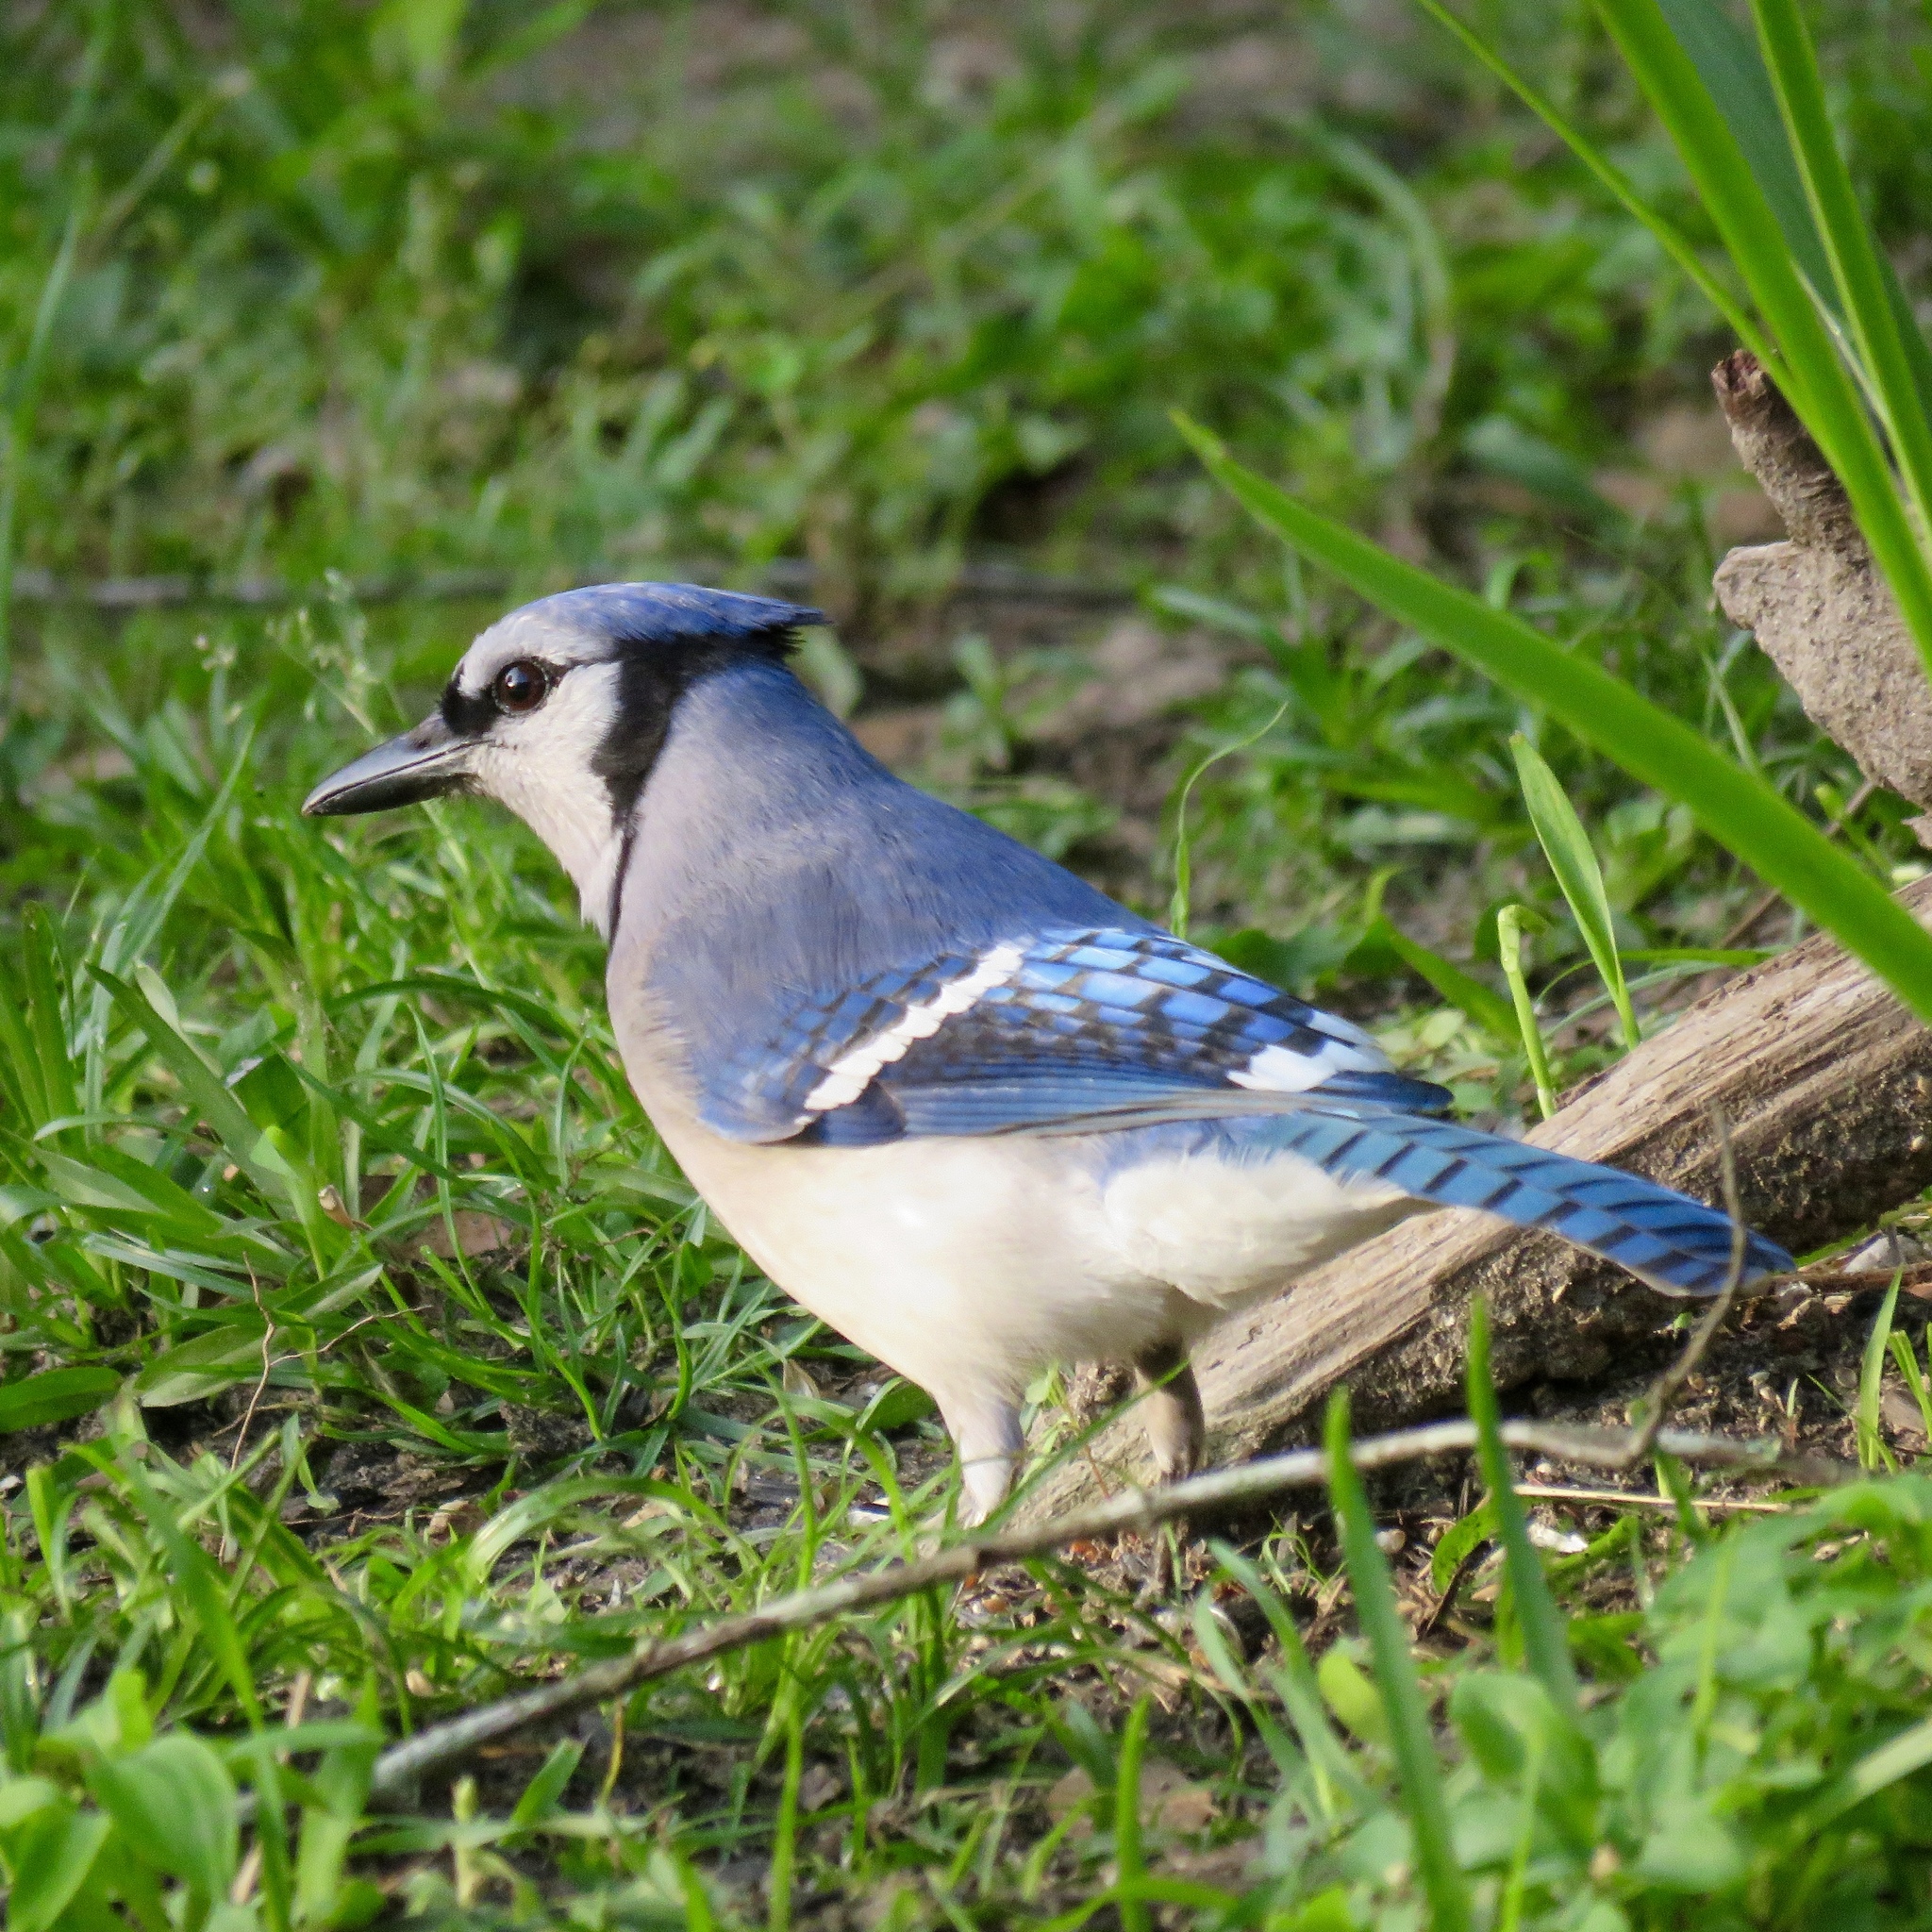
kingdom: Animalia
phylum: Chordata
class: Aves
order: Passeriformes
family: Corvidae
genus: Cyanocitta
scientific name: Cyanocitta cristata
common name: Blue jay
